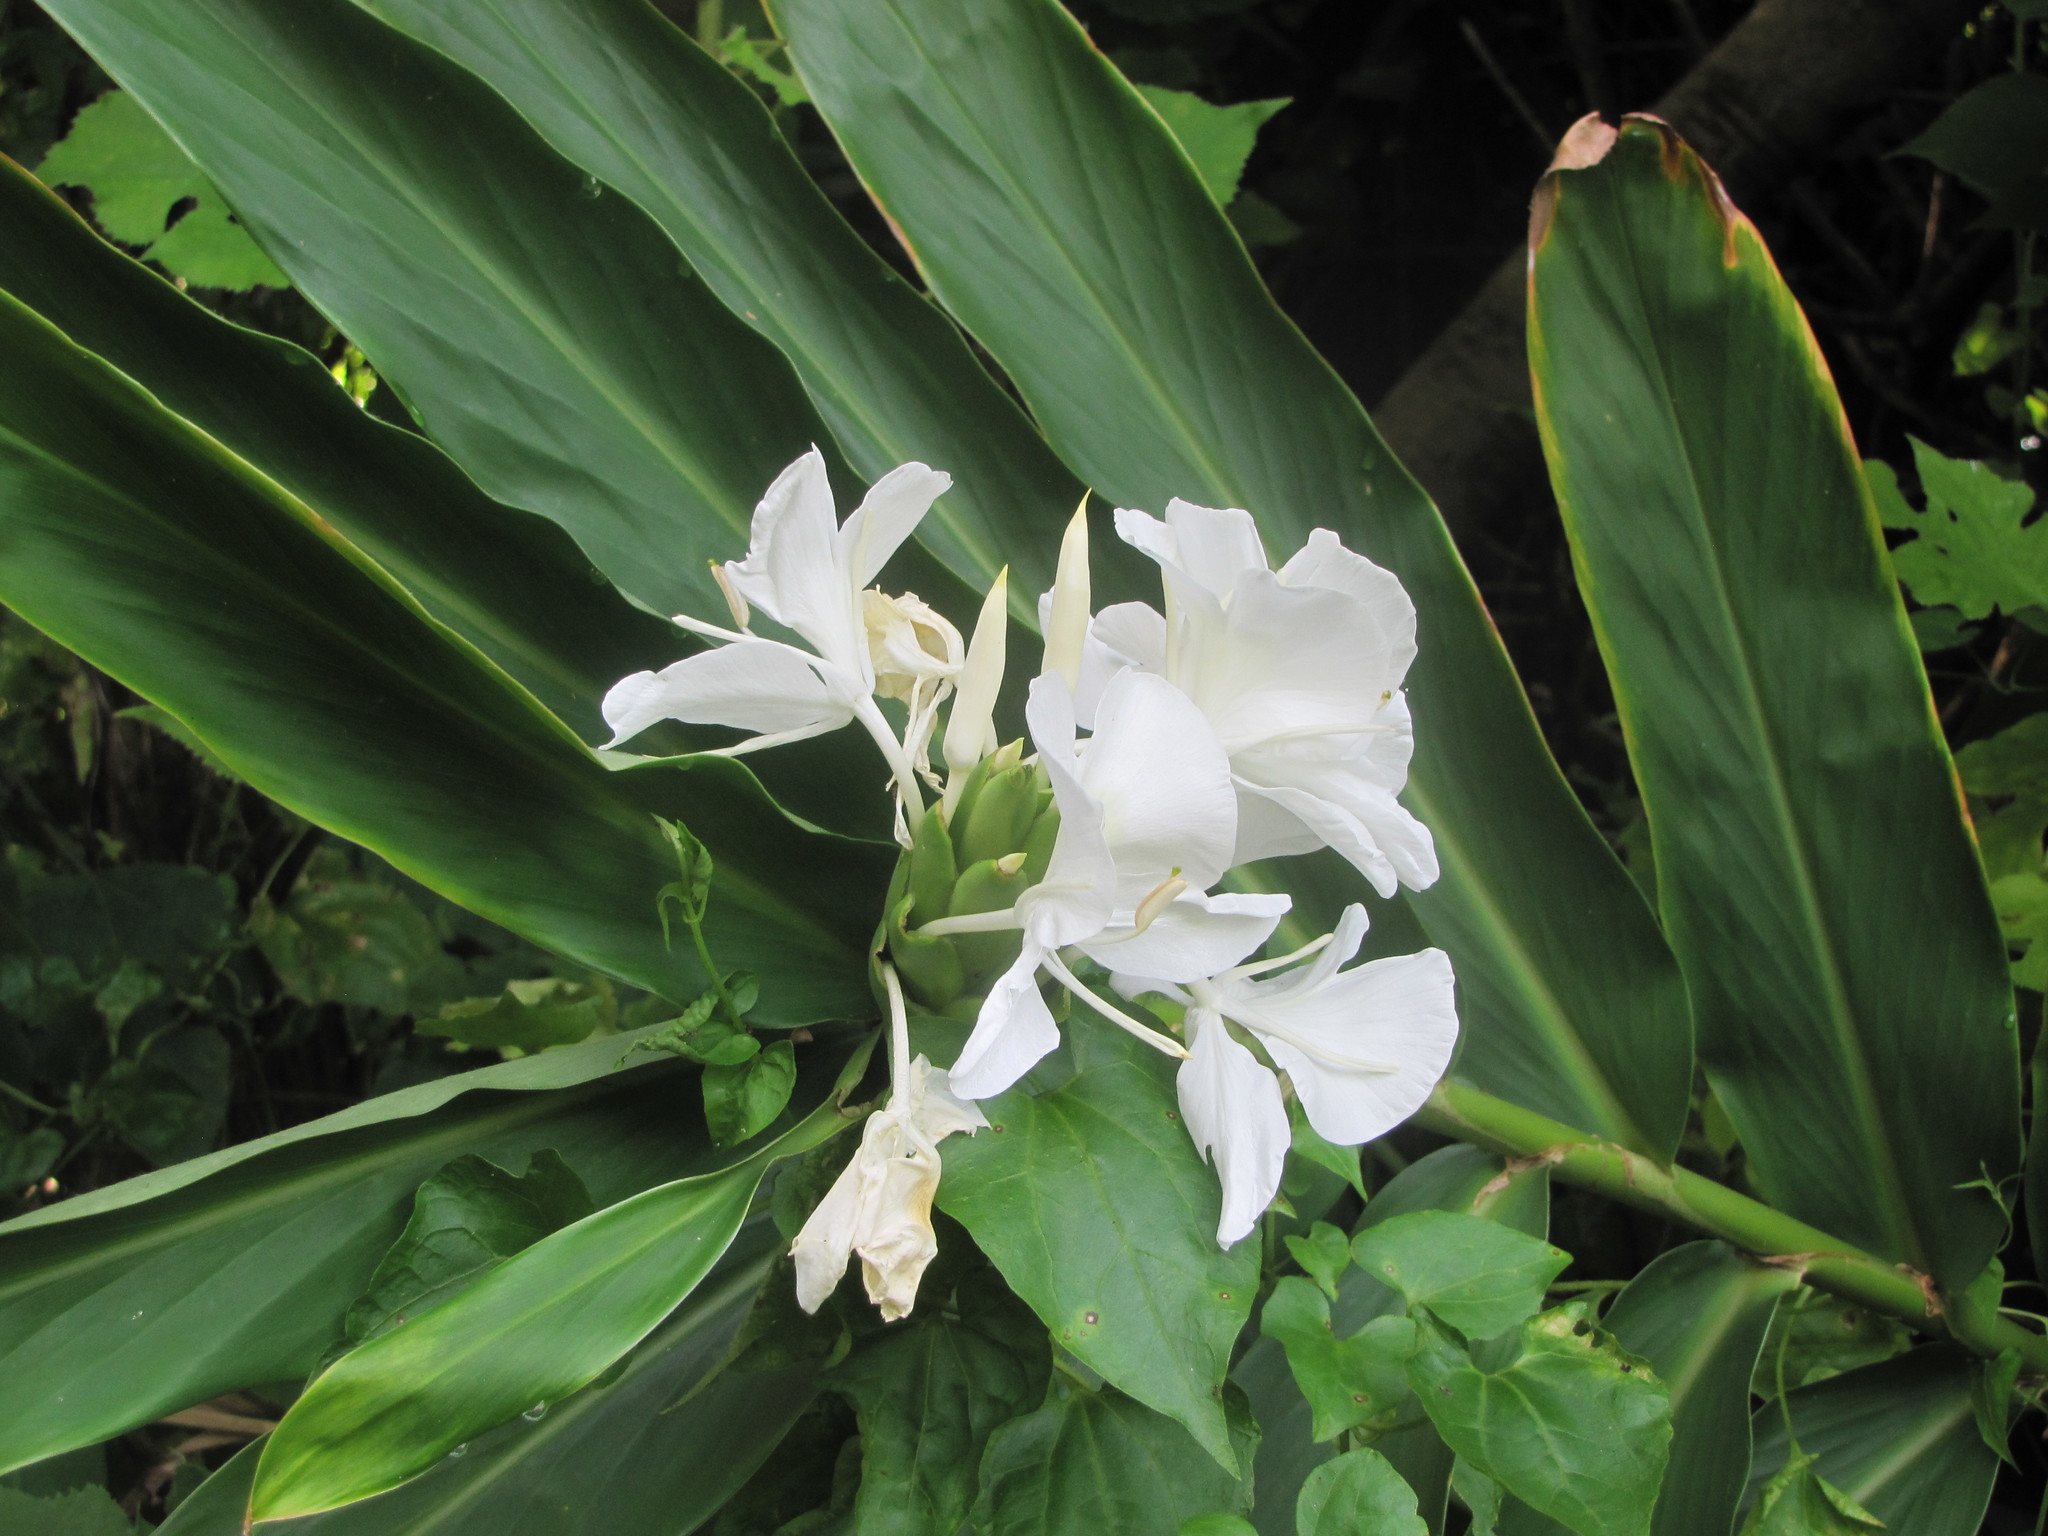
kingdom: Plantae
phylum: Tracheophyta
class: Liliopsida
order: Zingiberales
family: Zingiberaceae
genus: Hedychium
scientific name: Hedychium coronarium
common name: White garland-lily
